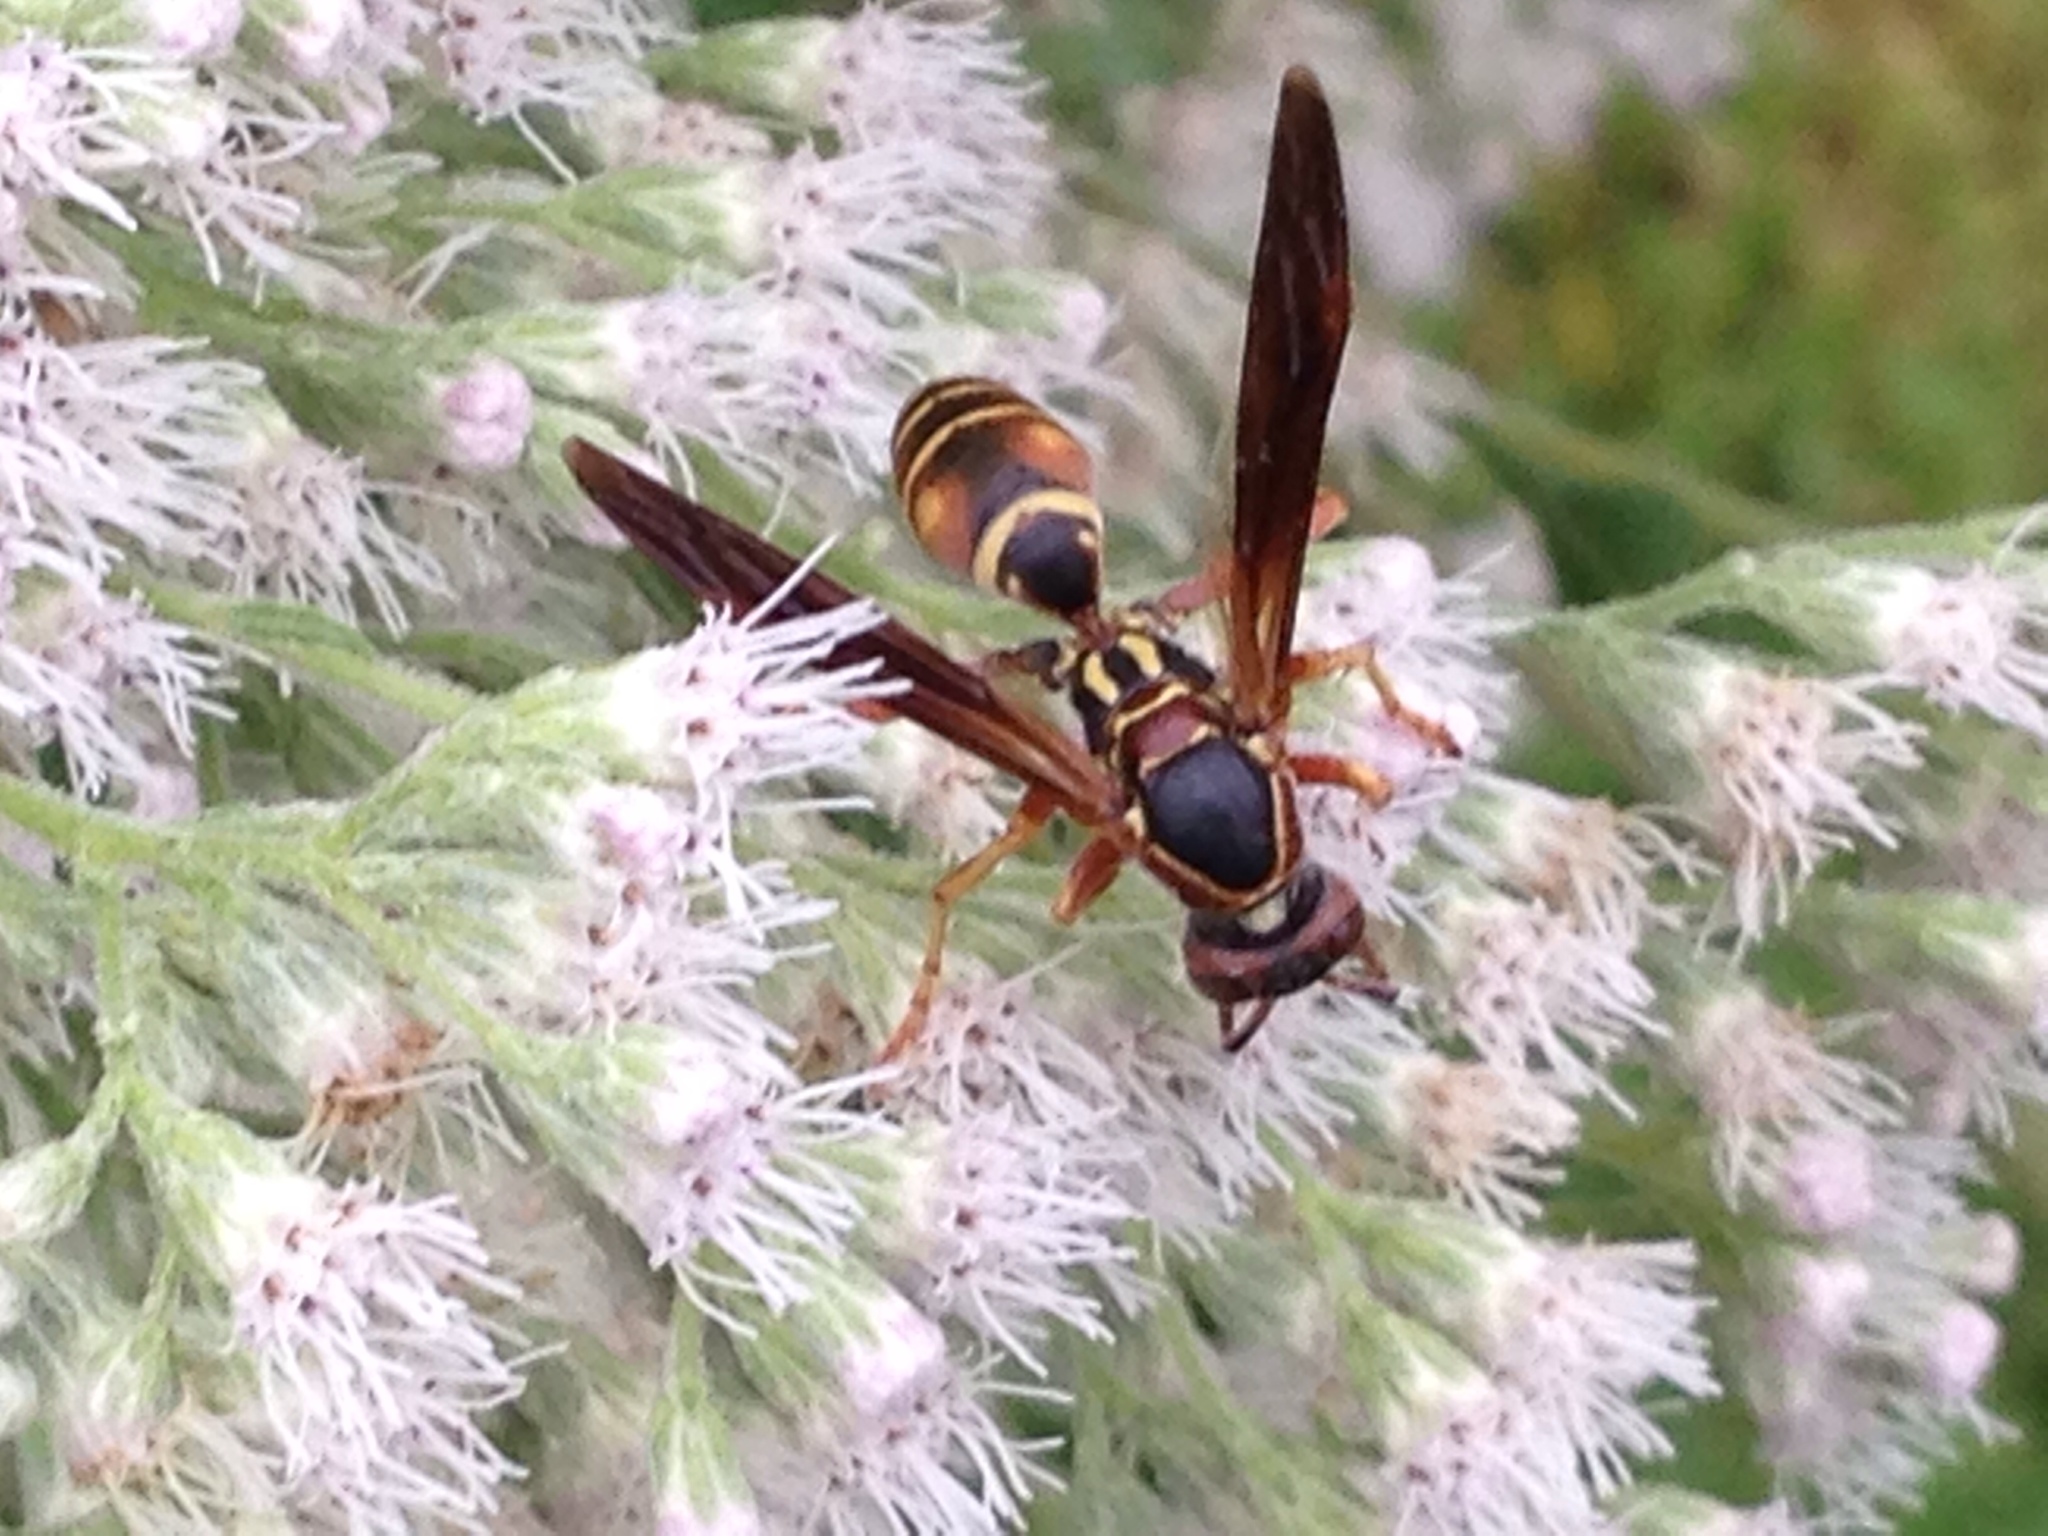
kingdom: Animalia
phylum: Arthropoda
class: Insecta
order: Hymenoptera
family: Eumenidae
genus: Polistes
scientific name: Polistes fuscatus
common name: Dark paper wasp
